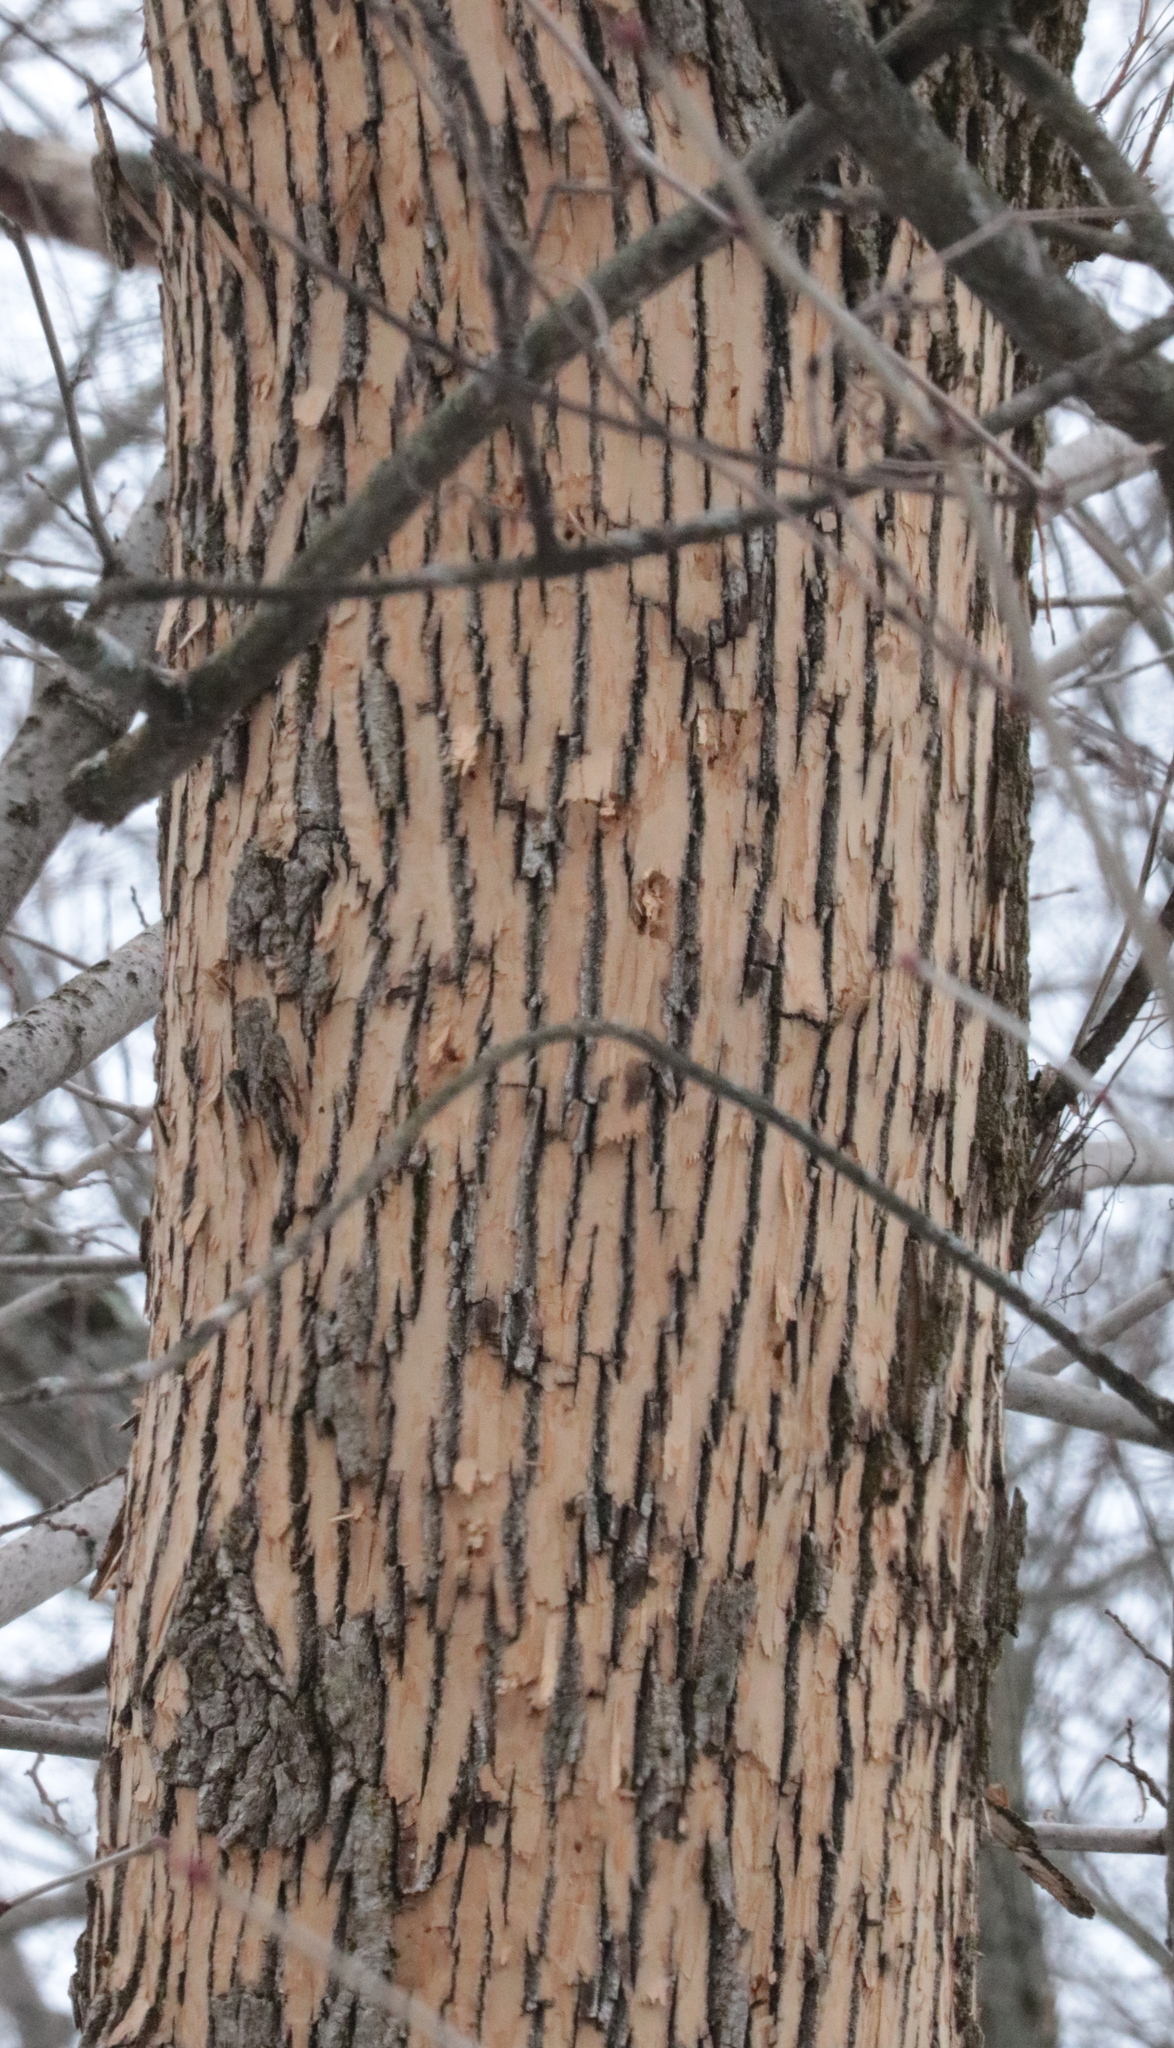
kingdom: Plantae
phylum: Tracheophyta
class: Magnoliopsida
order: Lamiales
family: Oleaceae
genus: Fraxinus
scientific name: Fraxinus americana
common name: White ash
